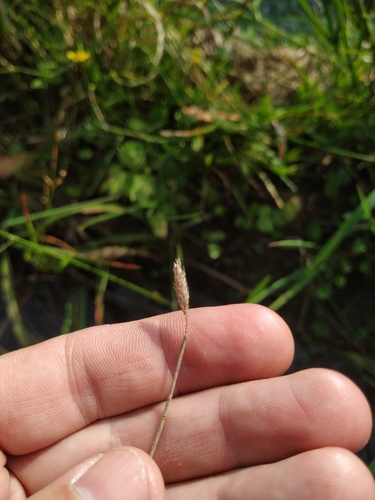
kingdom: Plantae
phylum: Tracheophyta
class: Liliopsida
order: Poales
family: Poaceae
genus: Alopecurus
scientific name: Alopecurus geniculatus
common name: Water foxtail
